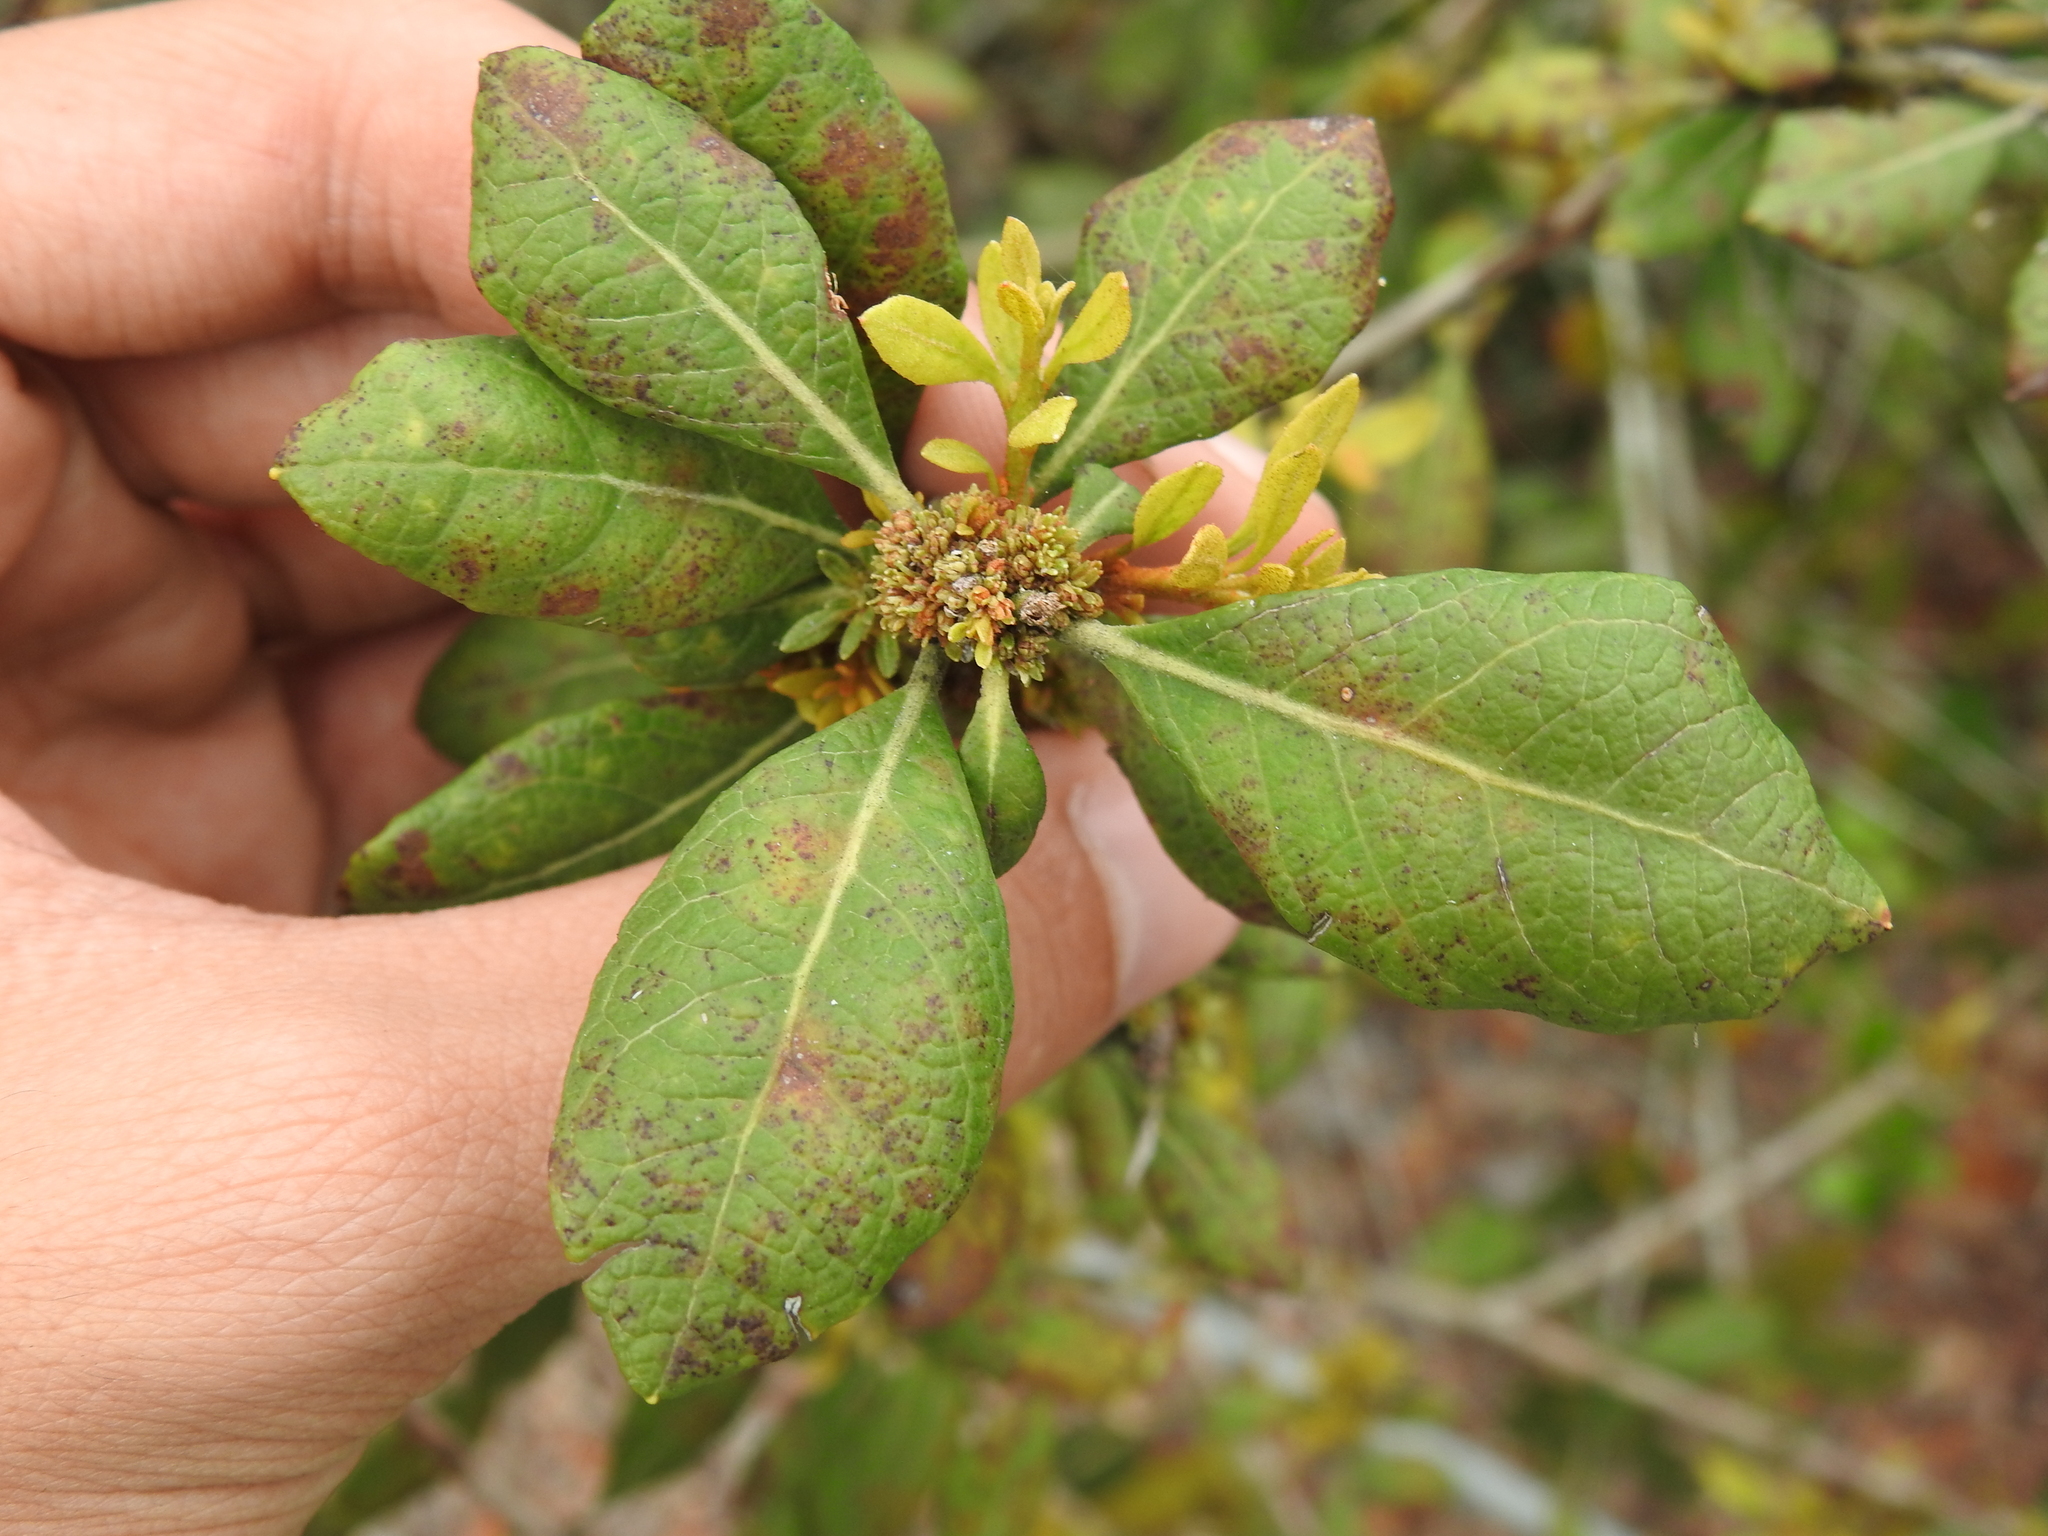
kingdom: Plantae
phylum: Tracheophyta
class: Magnoliopsida
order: Ericales
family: Ericaceae
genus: Lyonia
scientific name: Lyonia ferruginea
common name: Rusty lyonia
